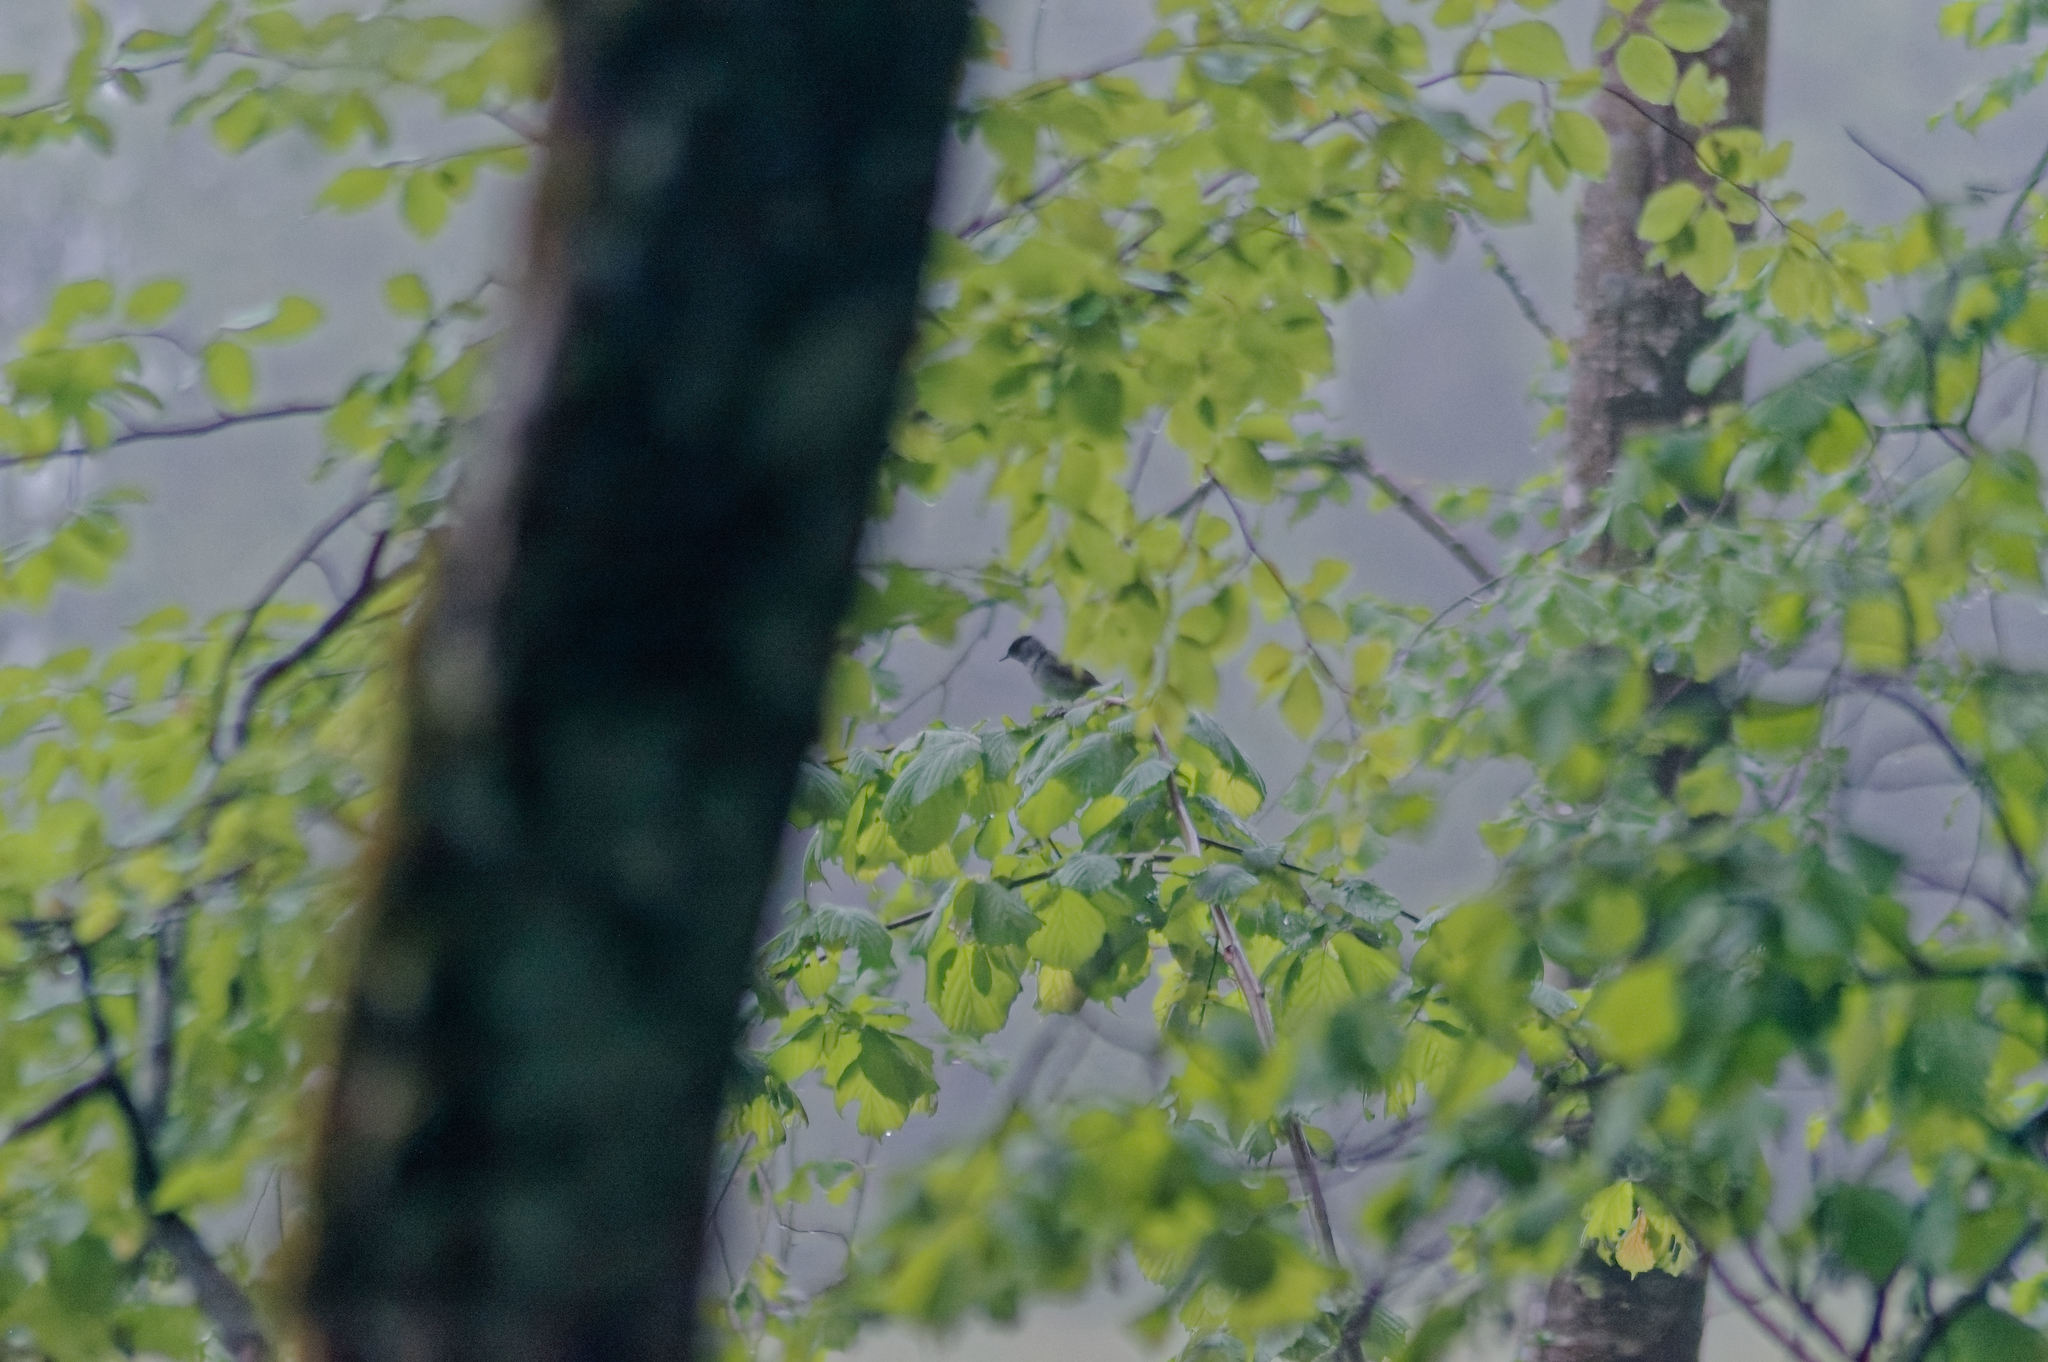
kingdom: Animalia
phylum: Chordata
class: Aves
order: Passeriformes
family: Sylviidae
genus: Sylvia
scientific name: Sylvia atricapilla
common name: Eurasian blackcap
